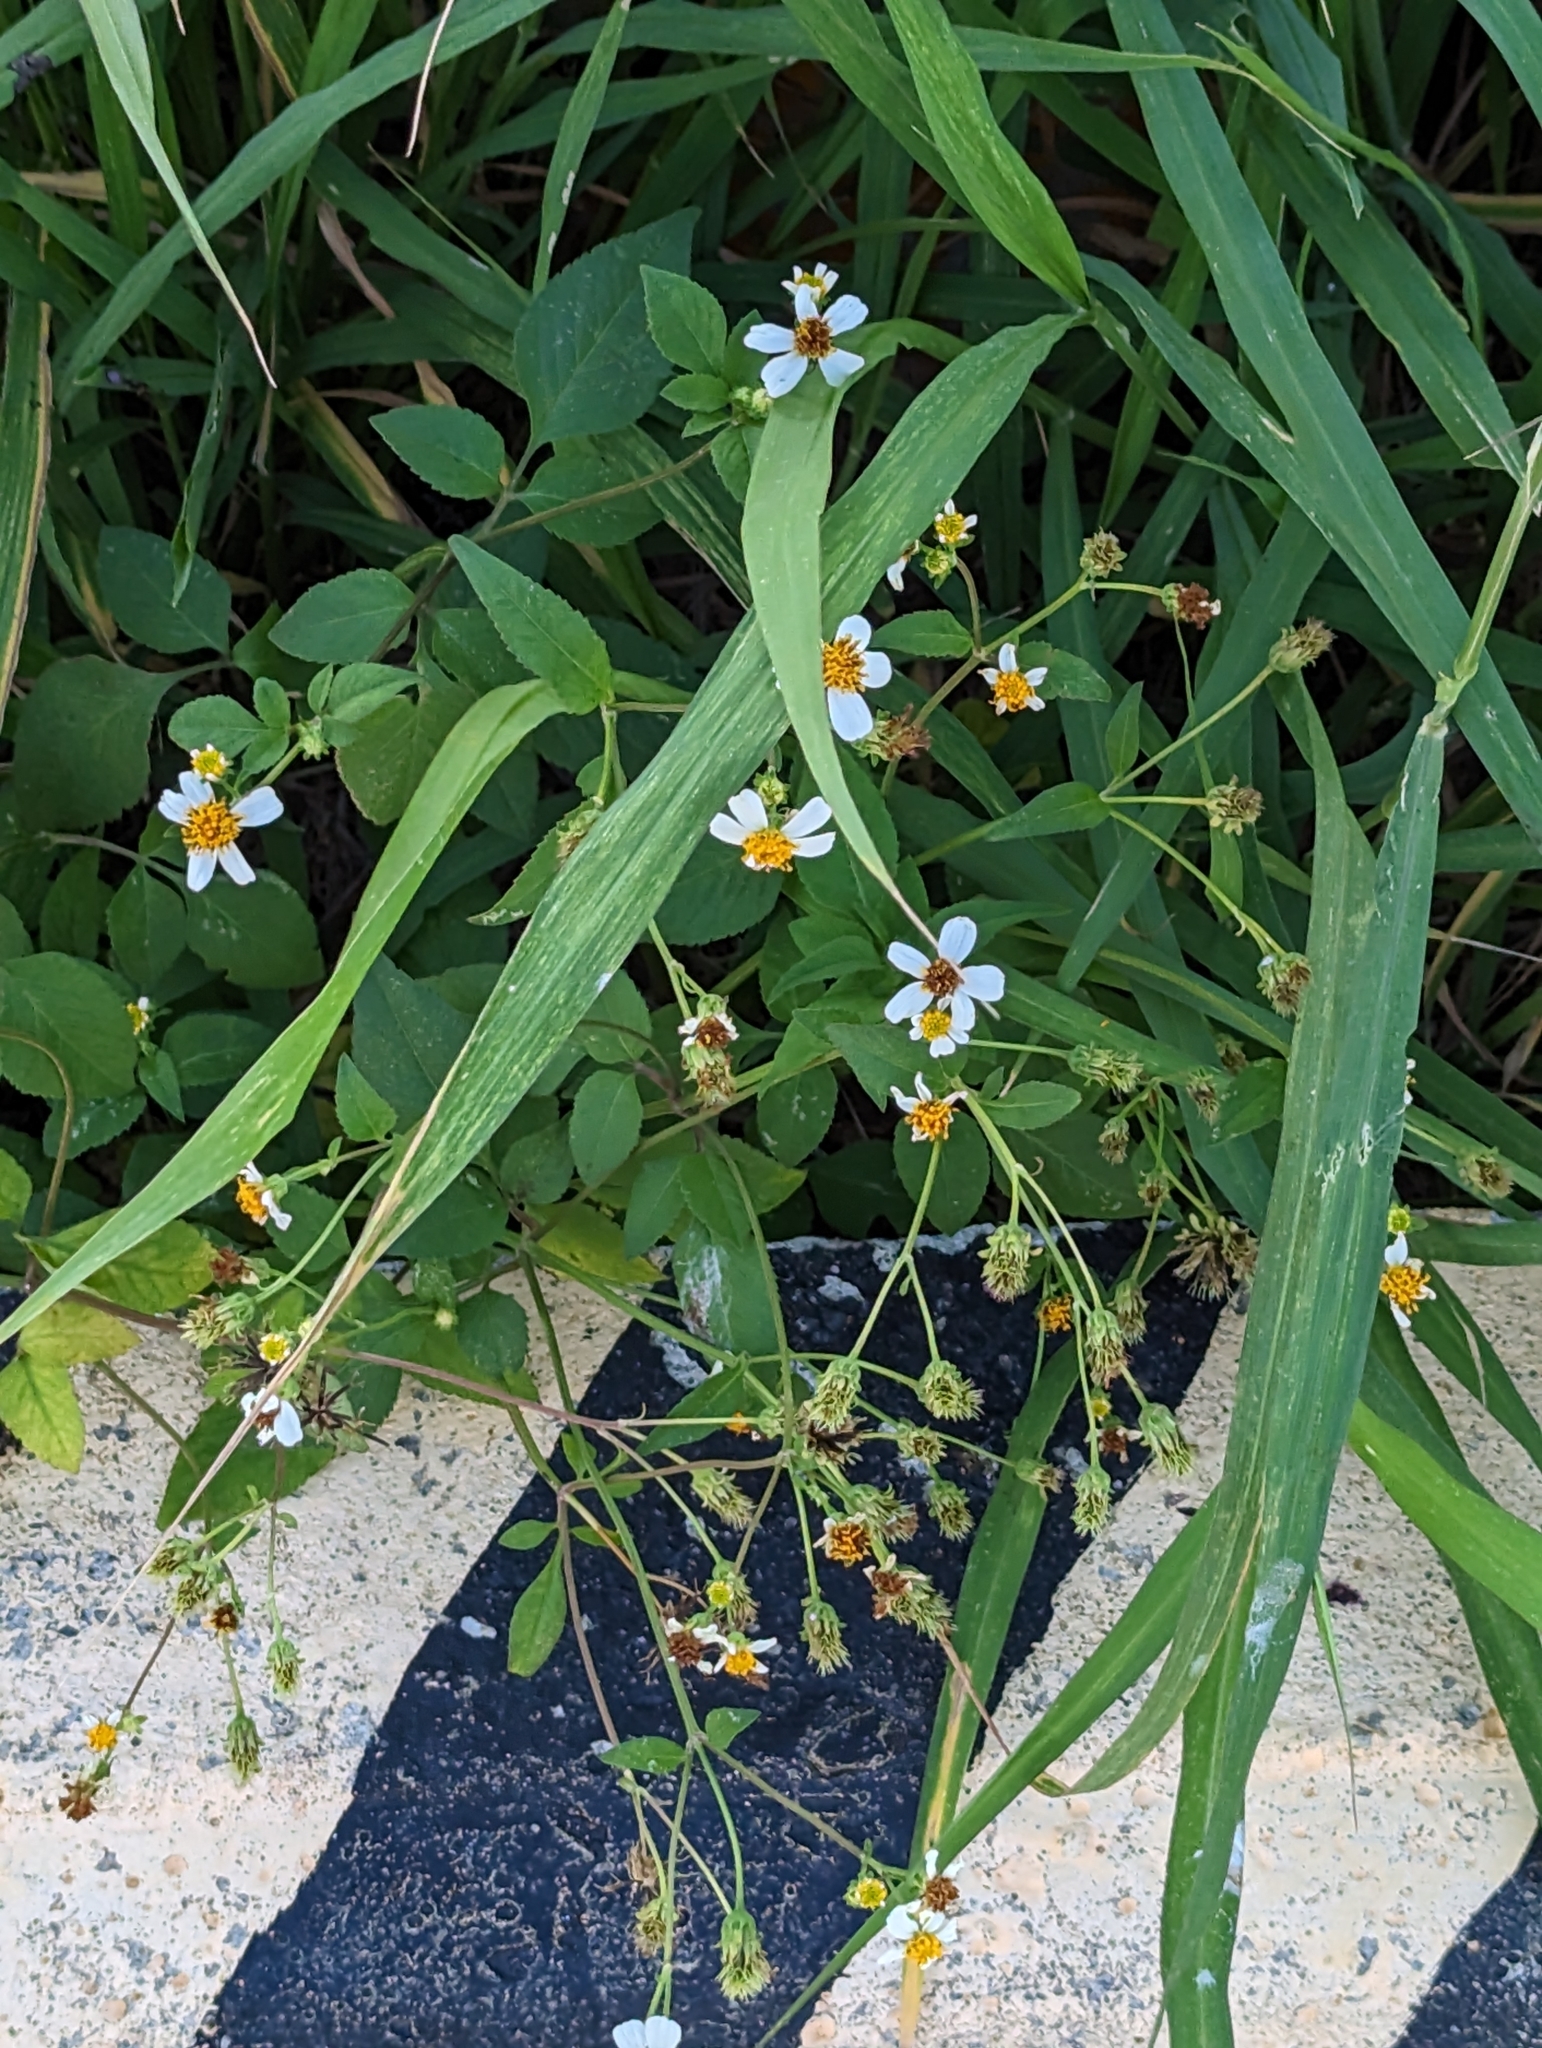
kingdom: Plantae
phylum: Tracheophyta
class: Magnoliopsida
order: Asterales
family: Asteraceae
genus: Bidens
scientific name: Bidens alba
